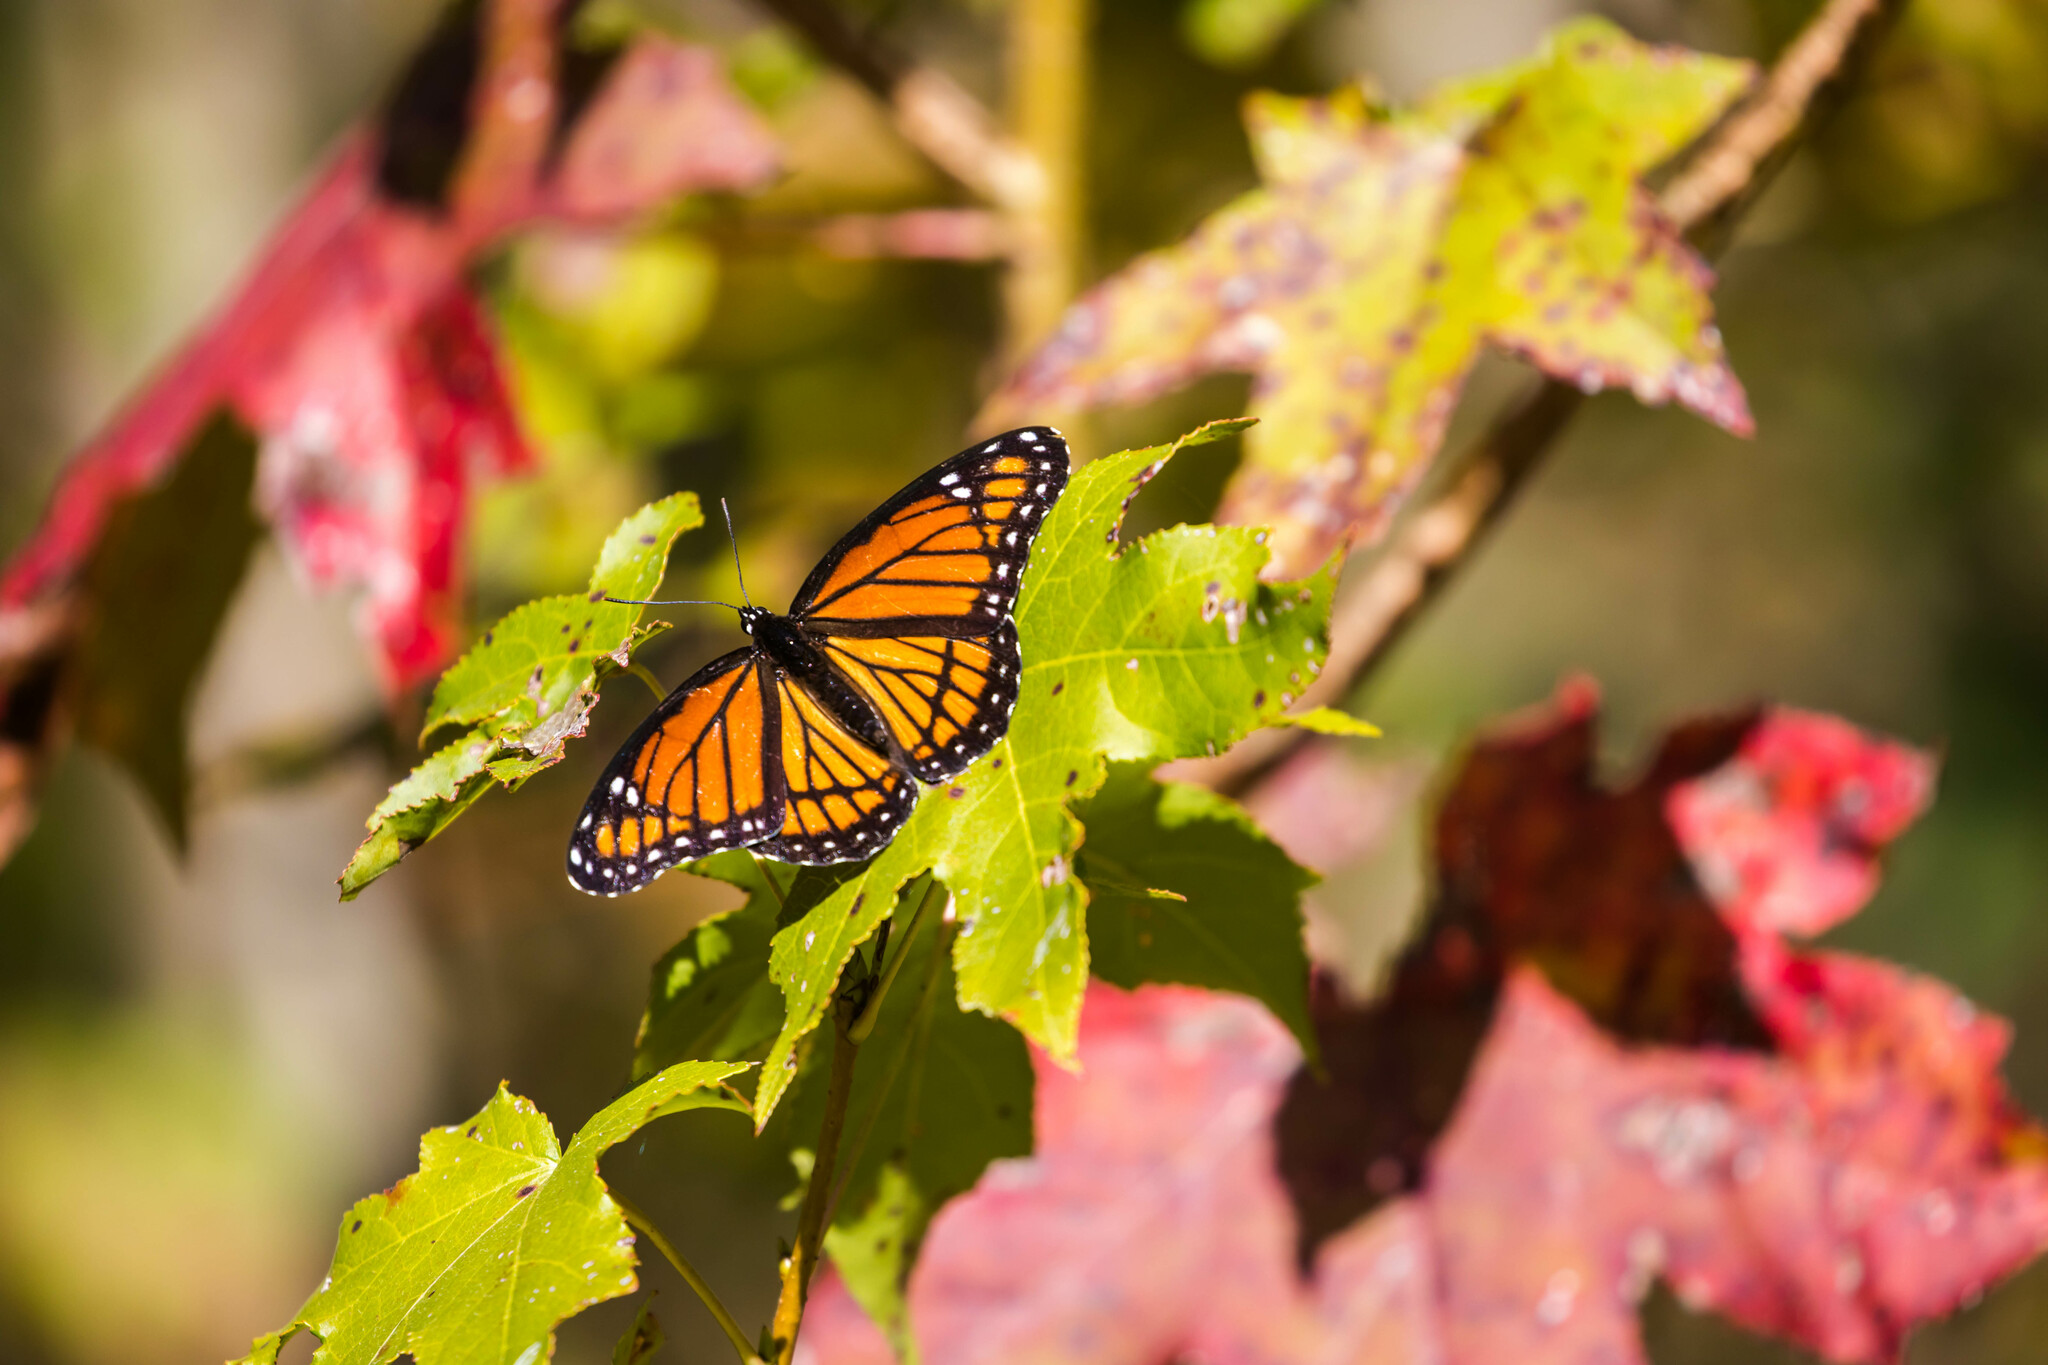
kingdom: Animalia
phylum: Arthropoda
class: Insecta
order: Lepidoptera
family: Nymphalidae
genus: Limenitis
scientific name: Limenitis archippus
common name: Viceroy
